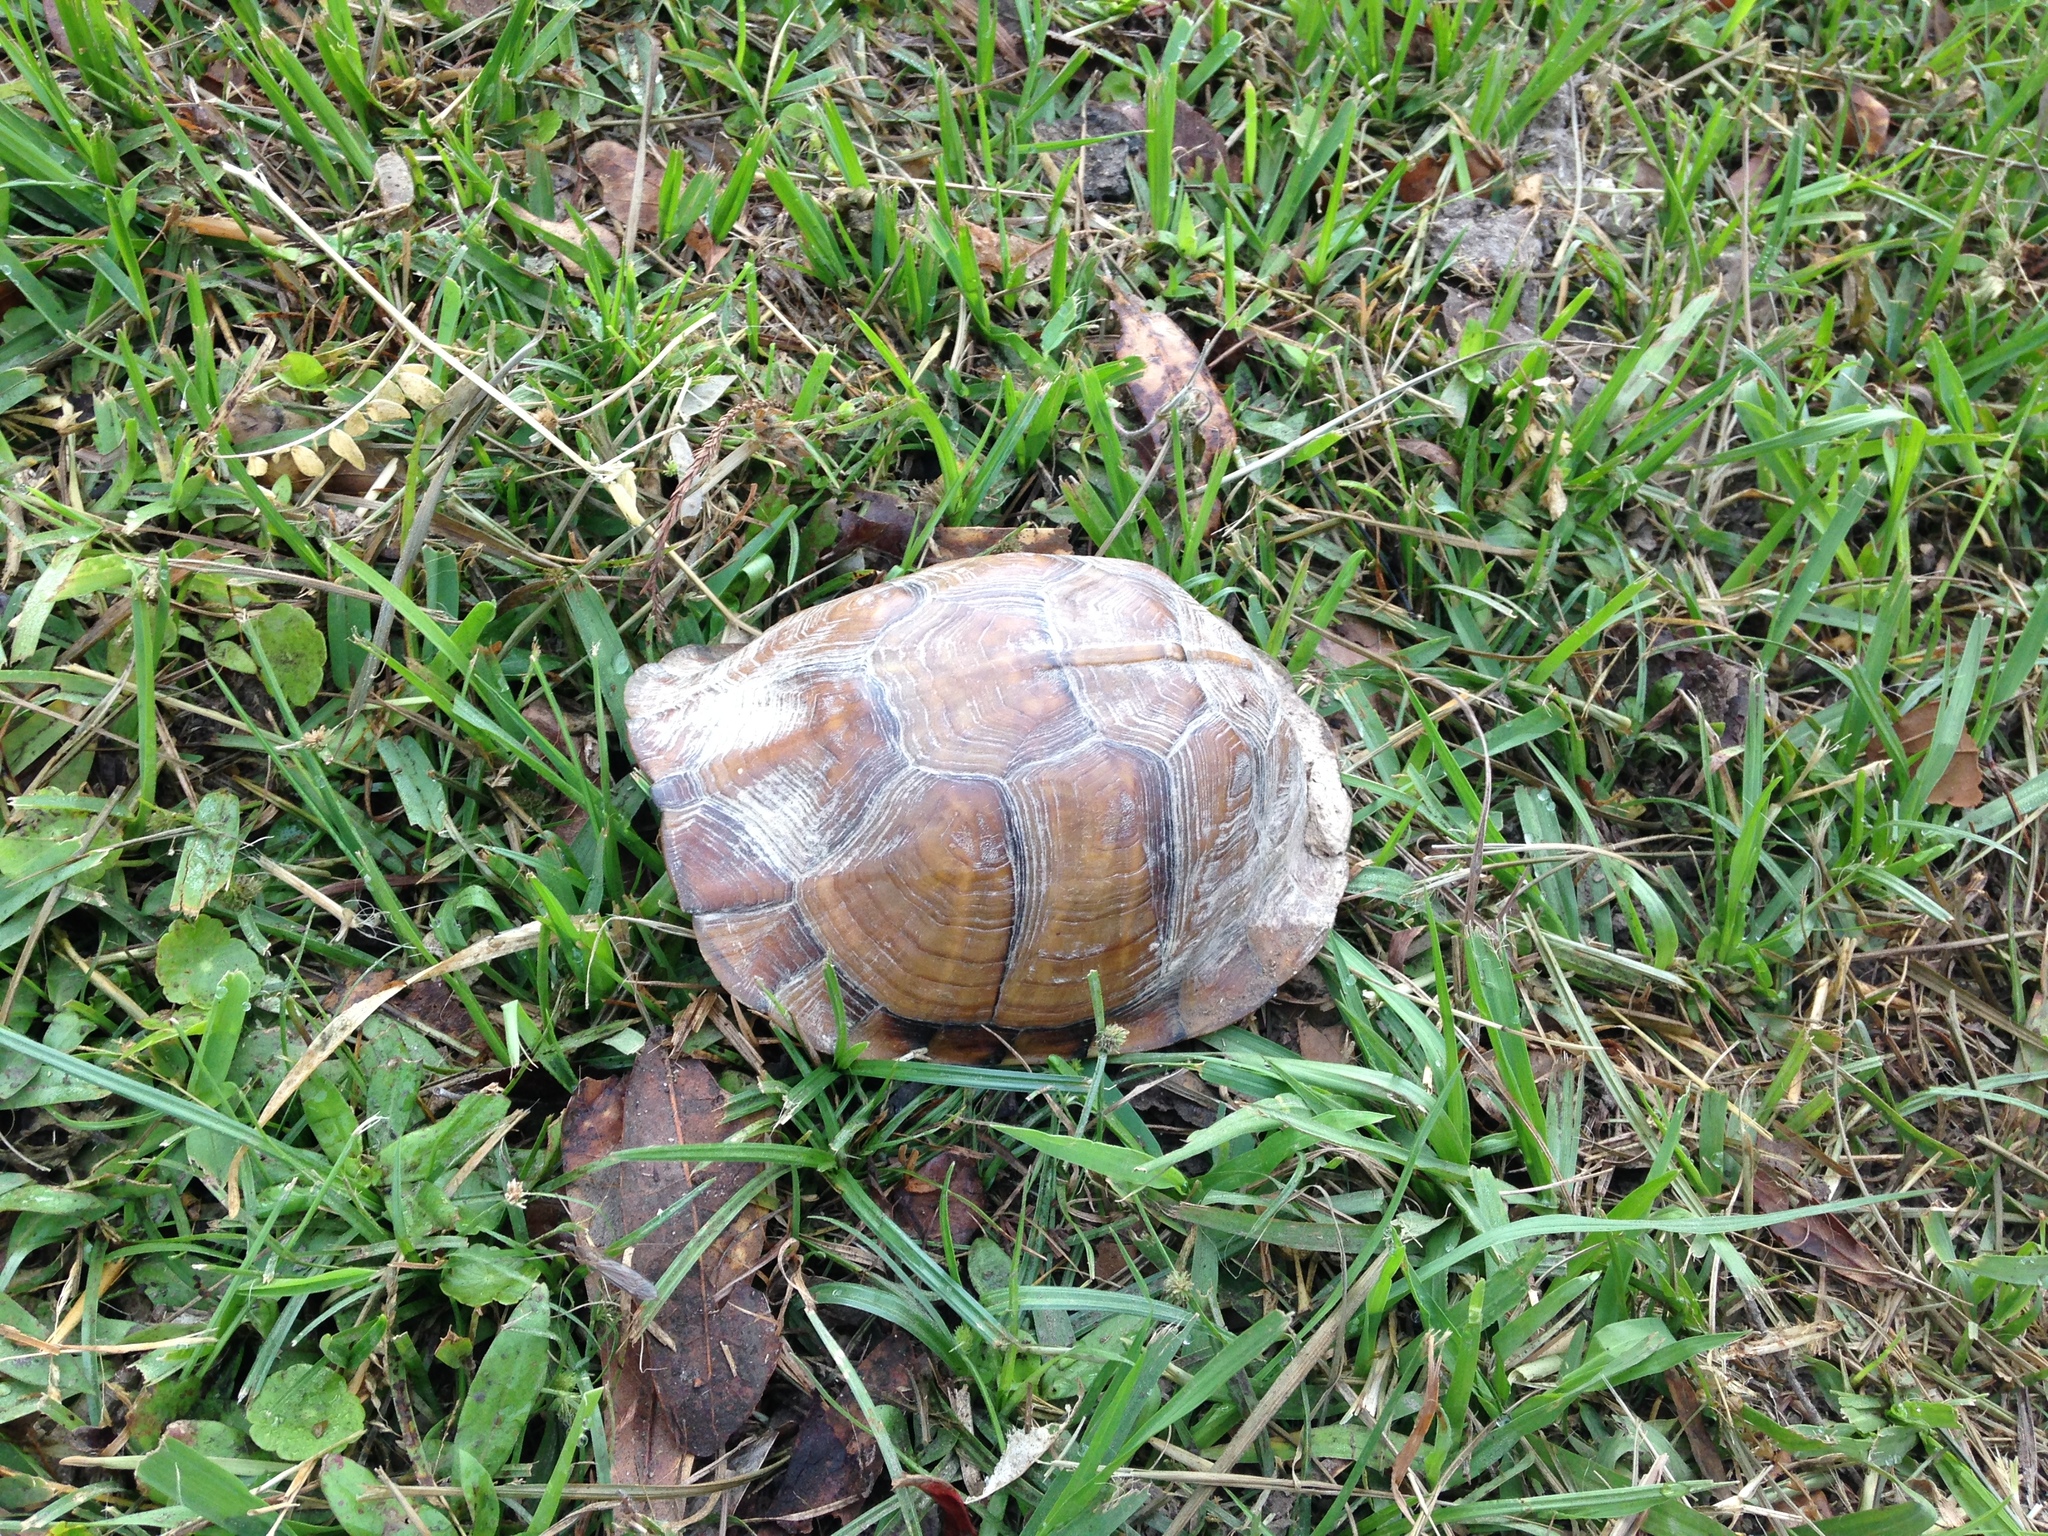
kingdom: Animalia
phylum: Chordata
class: Testudines
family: Emydidae
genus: Terrapene
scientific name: Terrapene carolina
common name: Common box turtle
